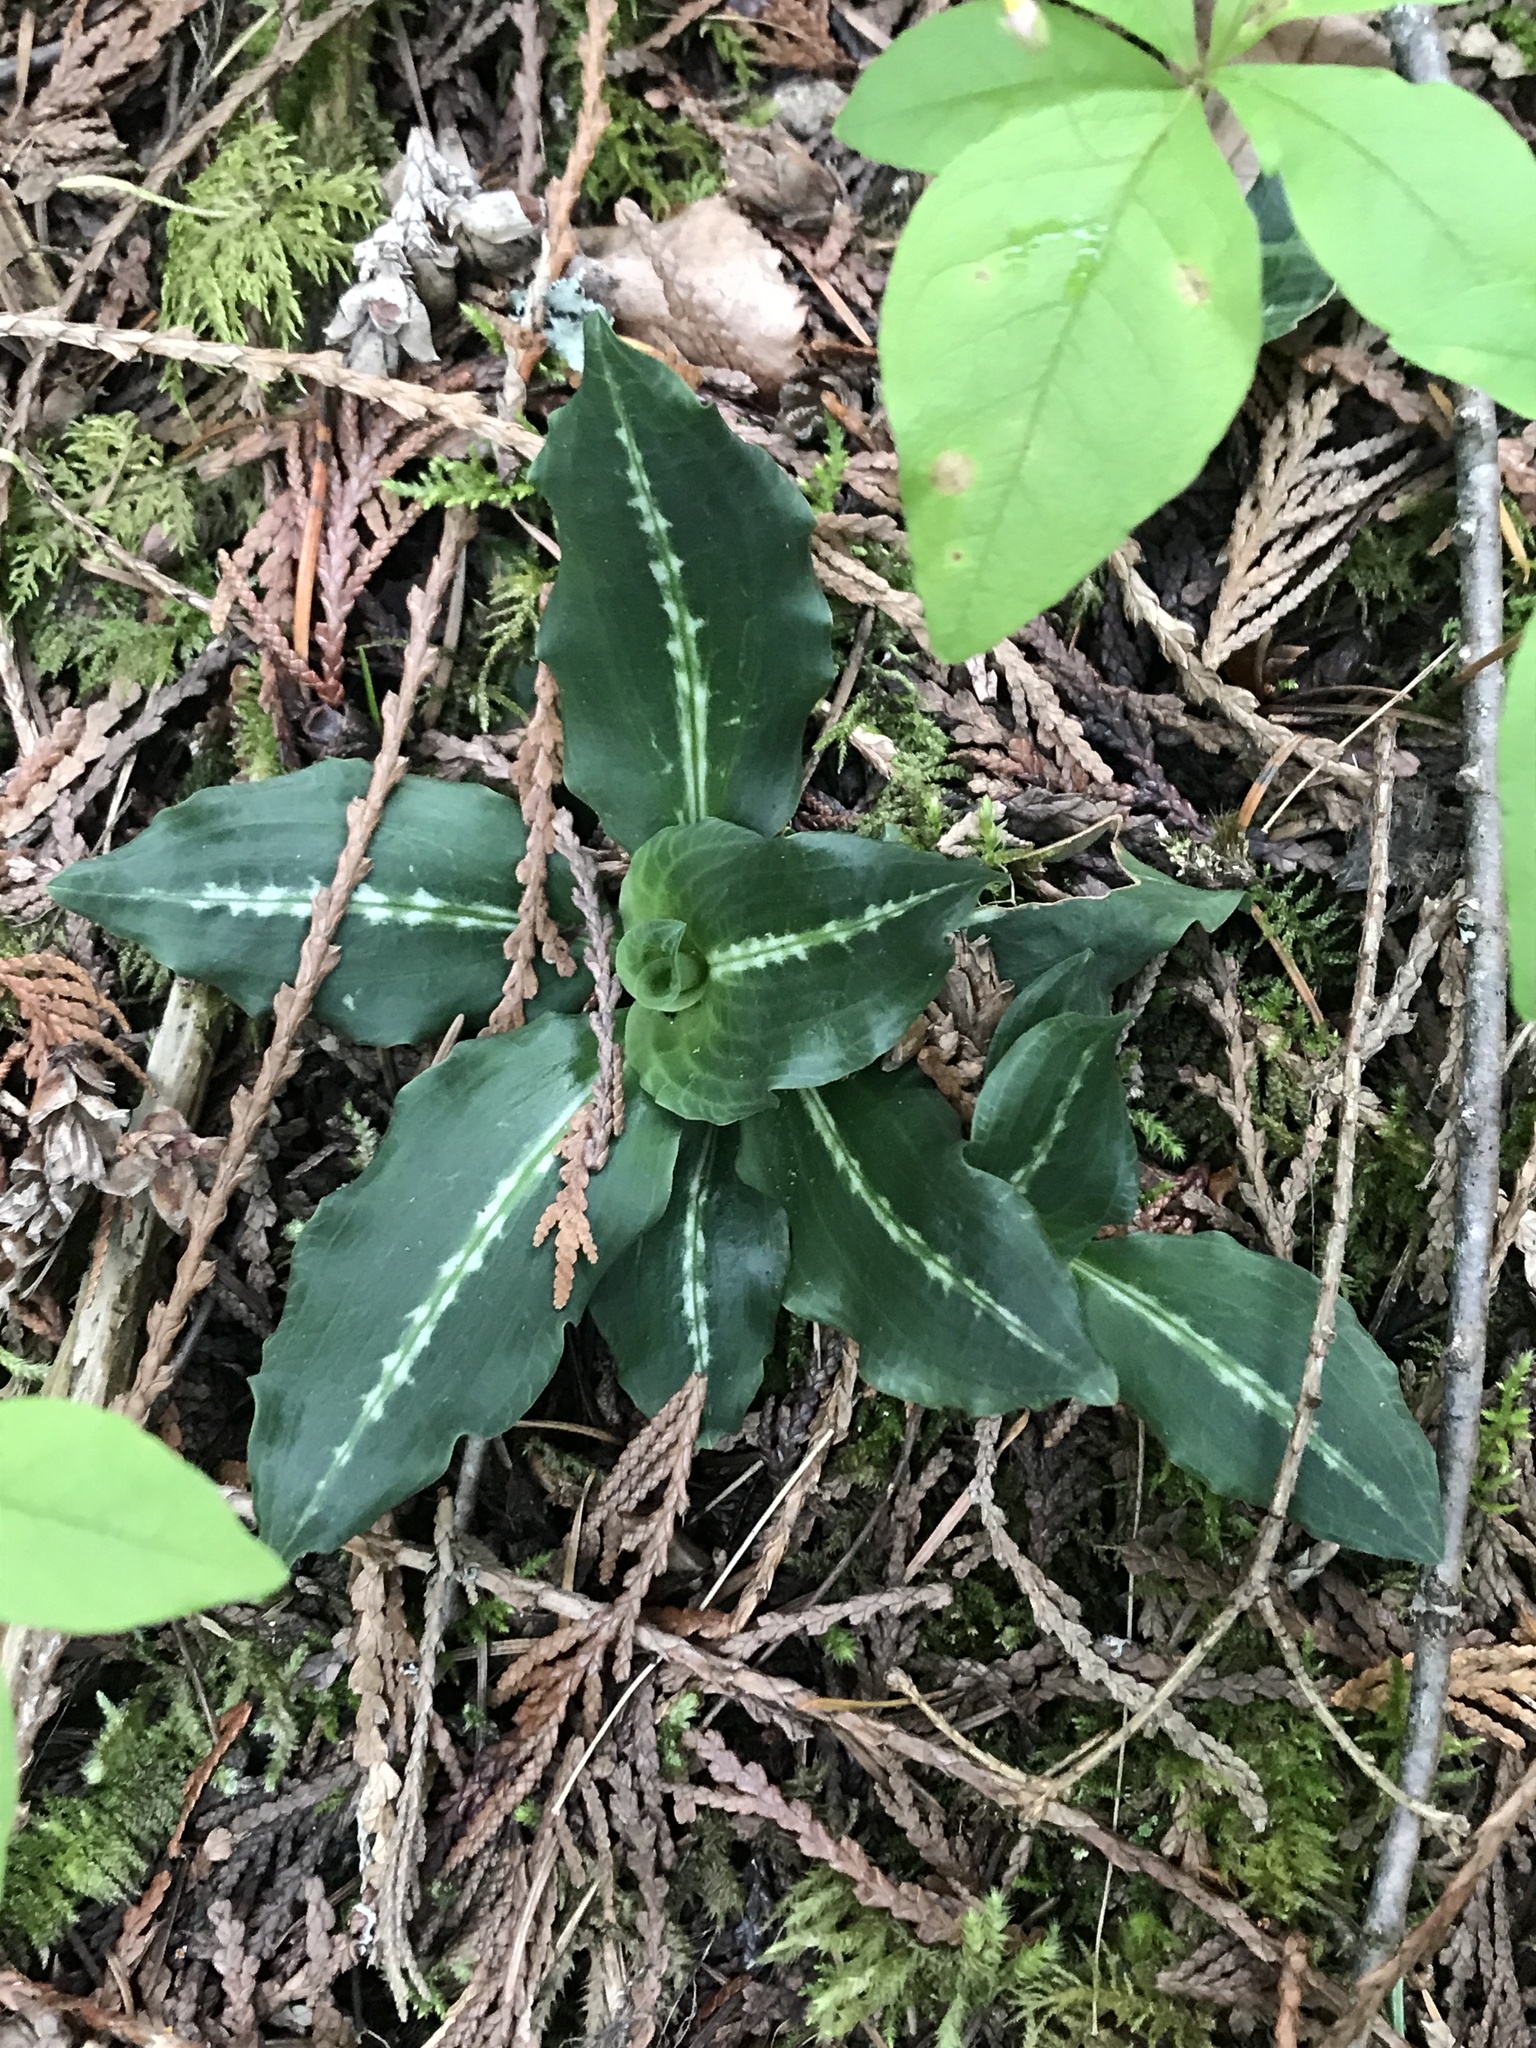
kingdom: Plantae
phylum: Tracheophyta
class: Liliopsida
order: Asparagales
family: Orchidaceae
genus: Goodyera
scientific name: Goodyera oblongifolia
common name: Giant rattlesnake-plantain
